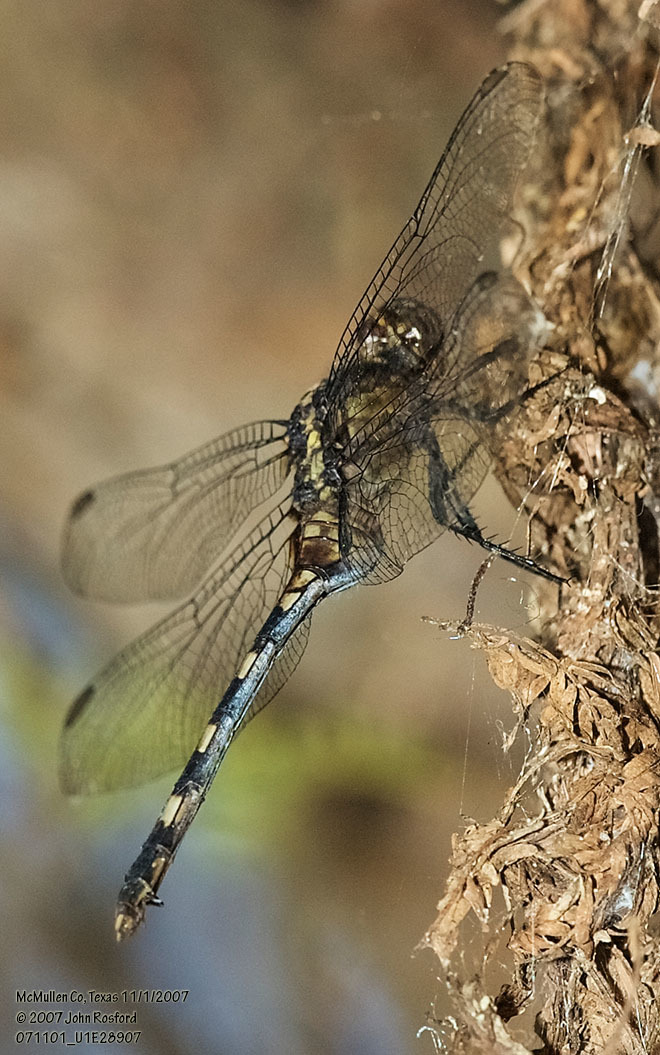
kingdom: Animalia
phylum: Arthropoda
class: Insecta
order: Odonata
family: Libellulidae
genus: Erythemis
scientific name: Erythemis plebeja
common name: Pin-tailed pondhawk
